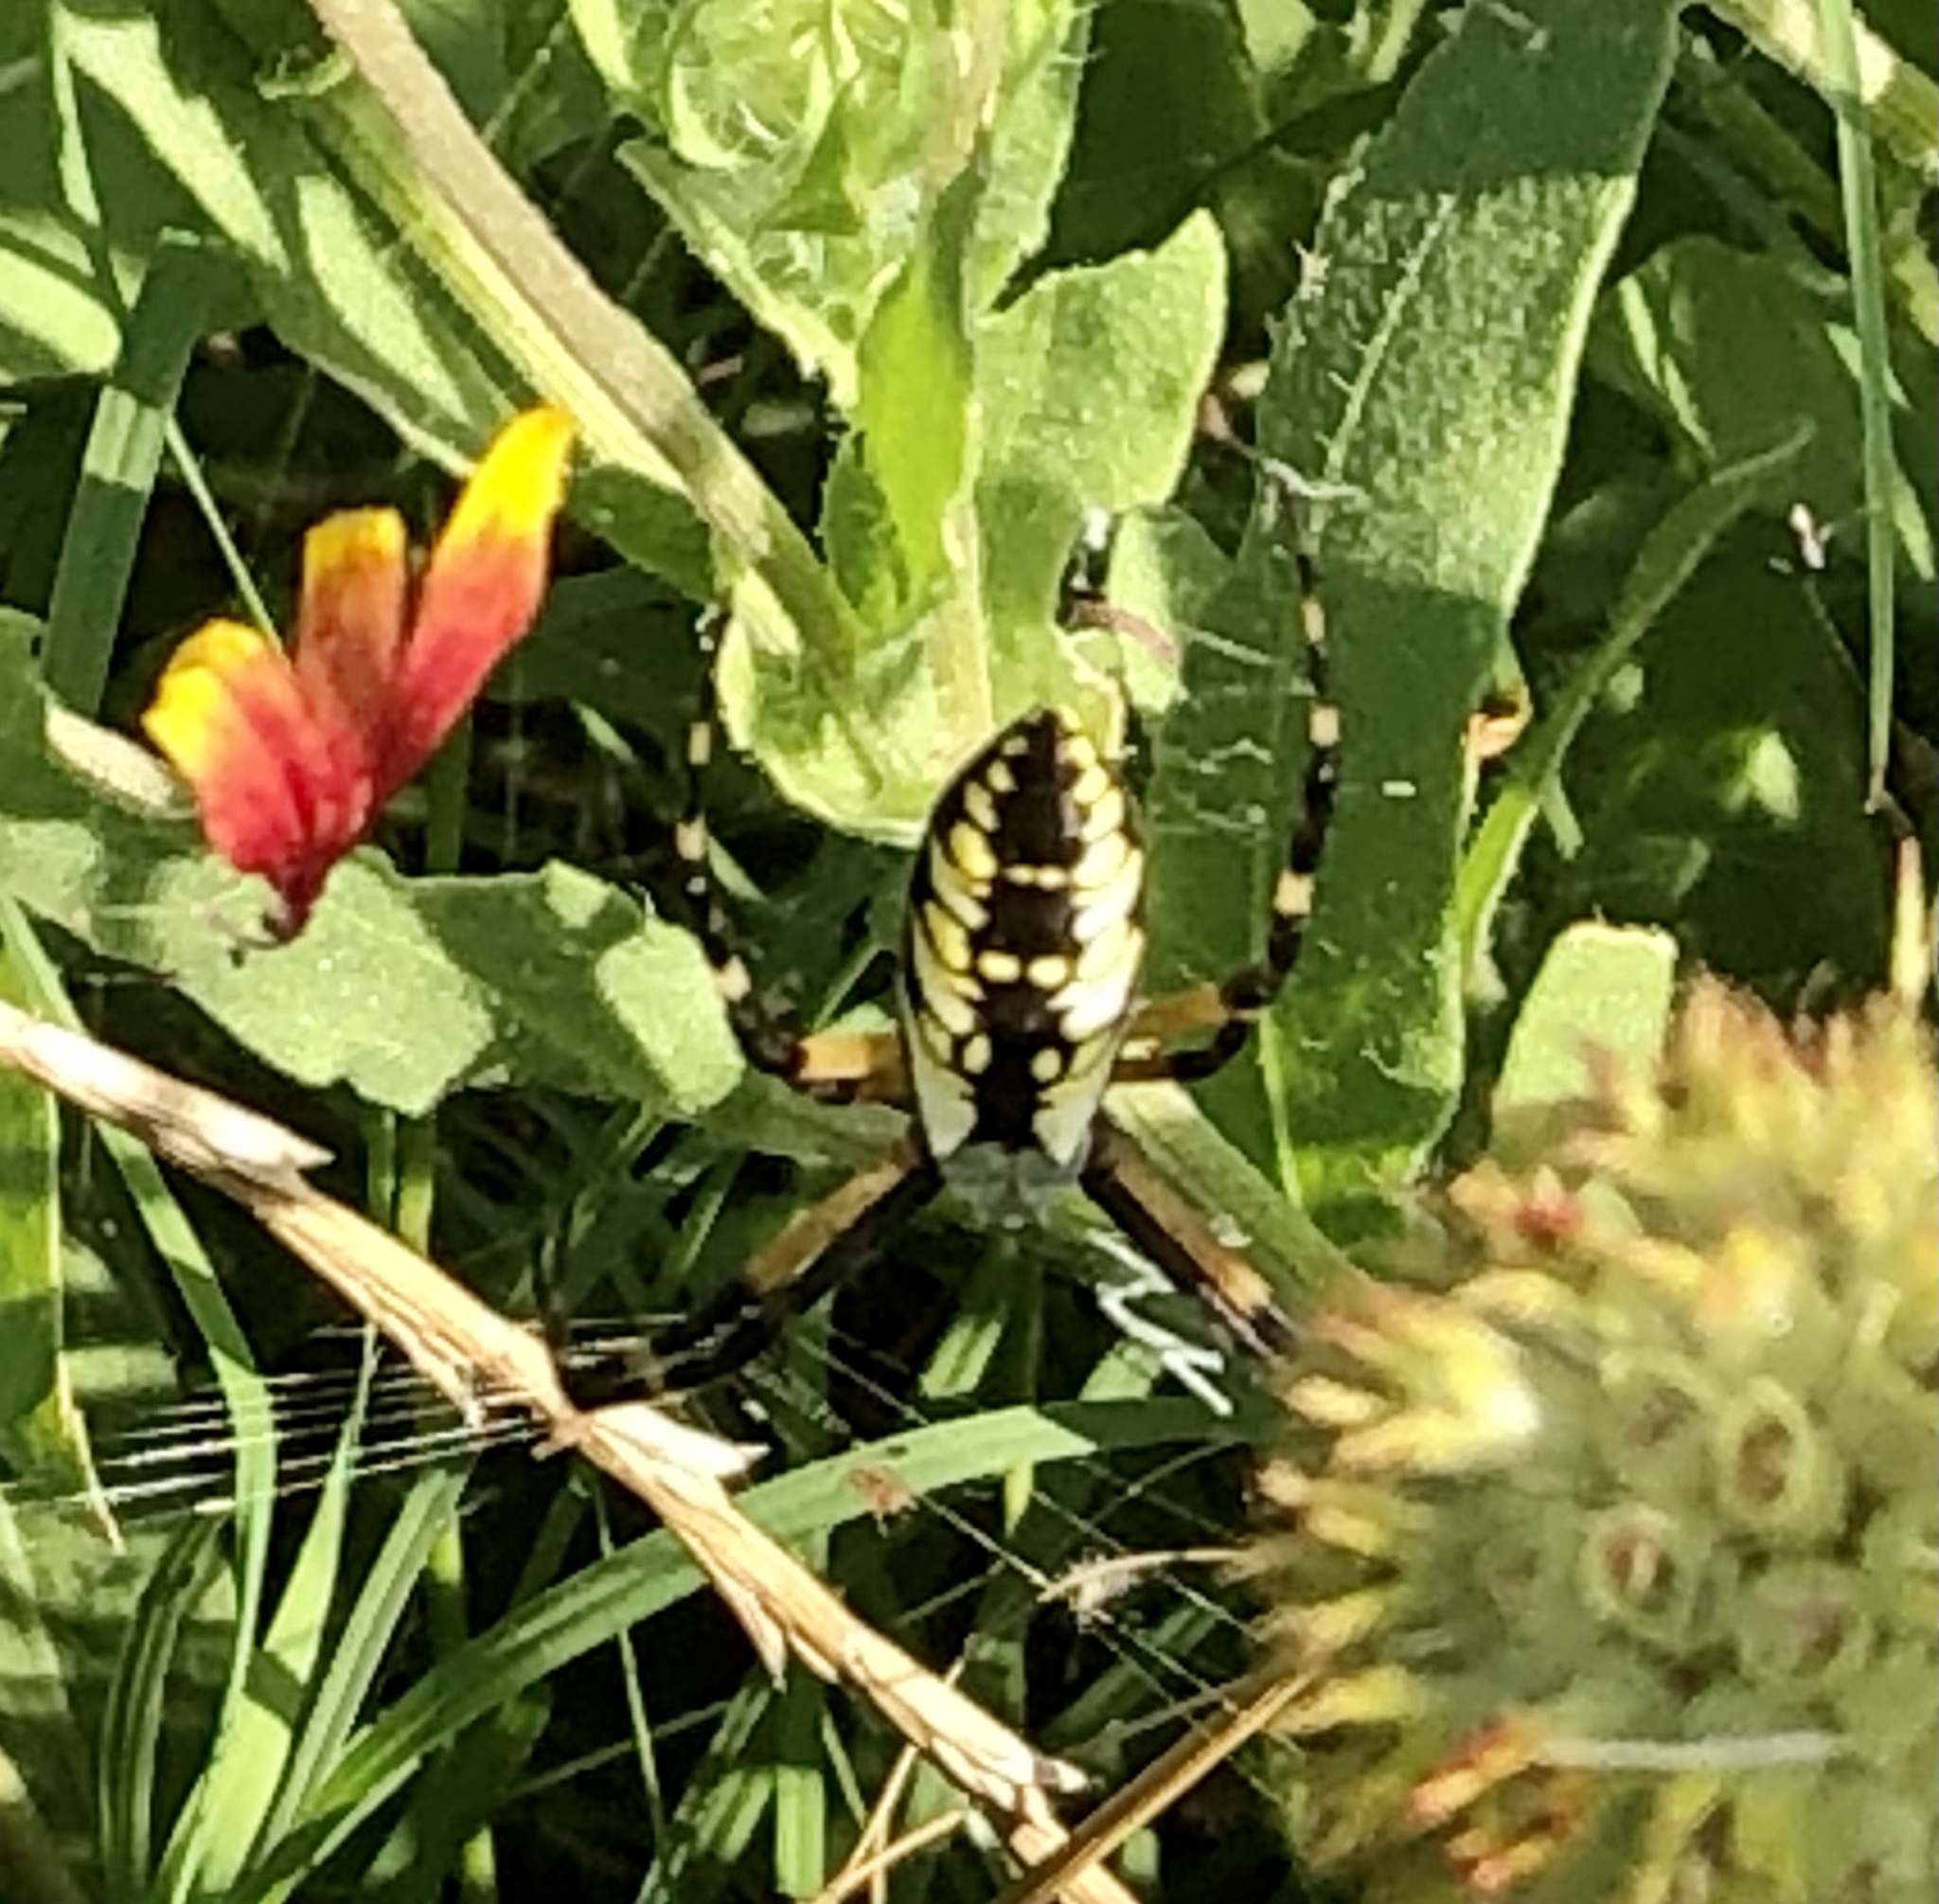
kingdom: Animalia
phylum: Arthropoda
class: Arachnida
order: Araneae
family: Araneidae
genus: Argiope
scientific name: Argiope aurantia
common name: Orb weavers
